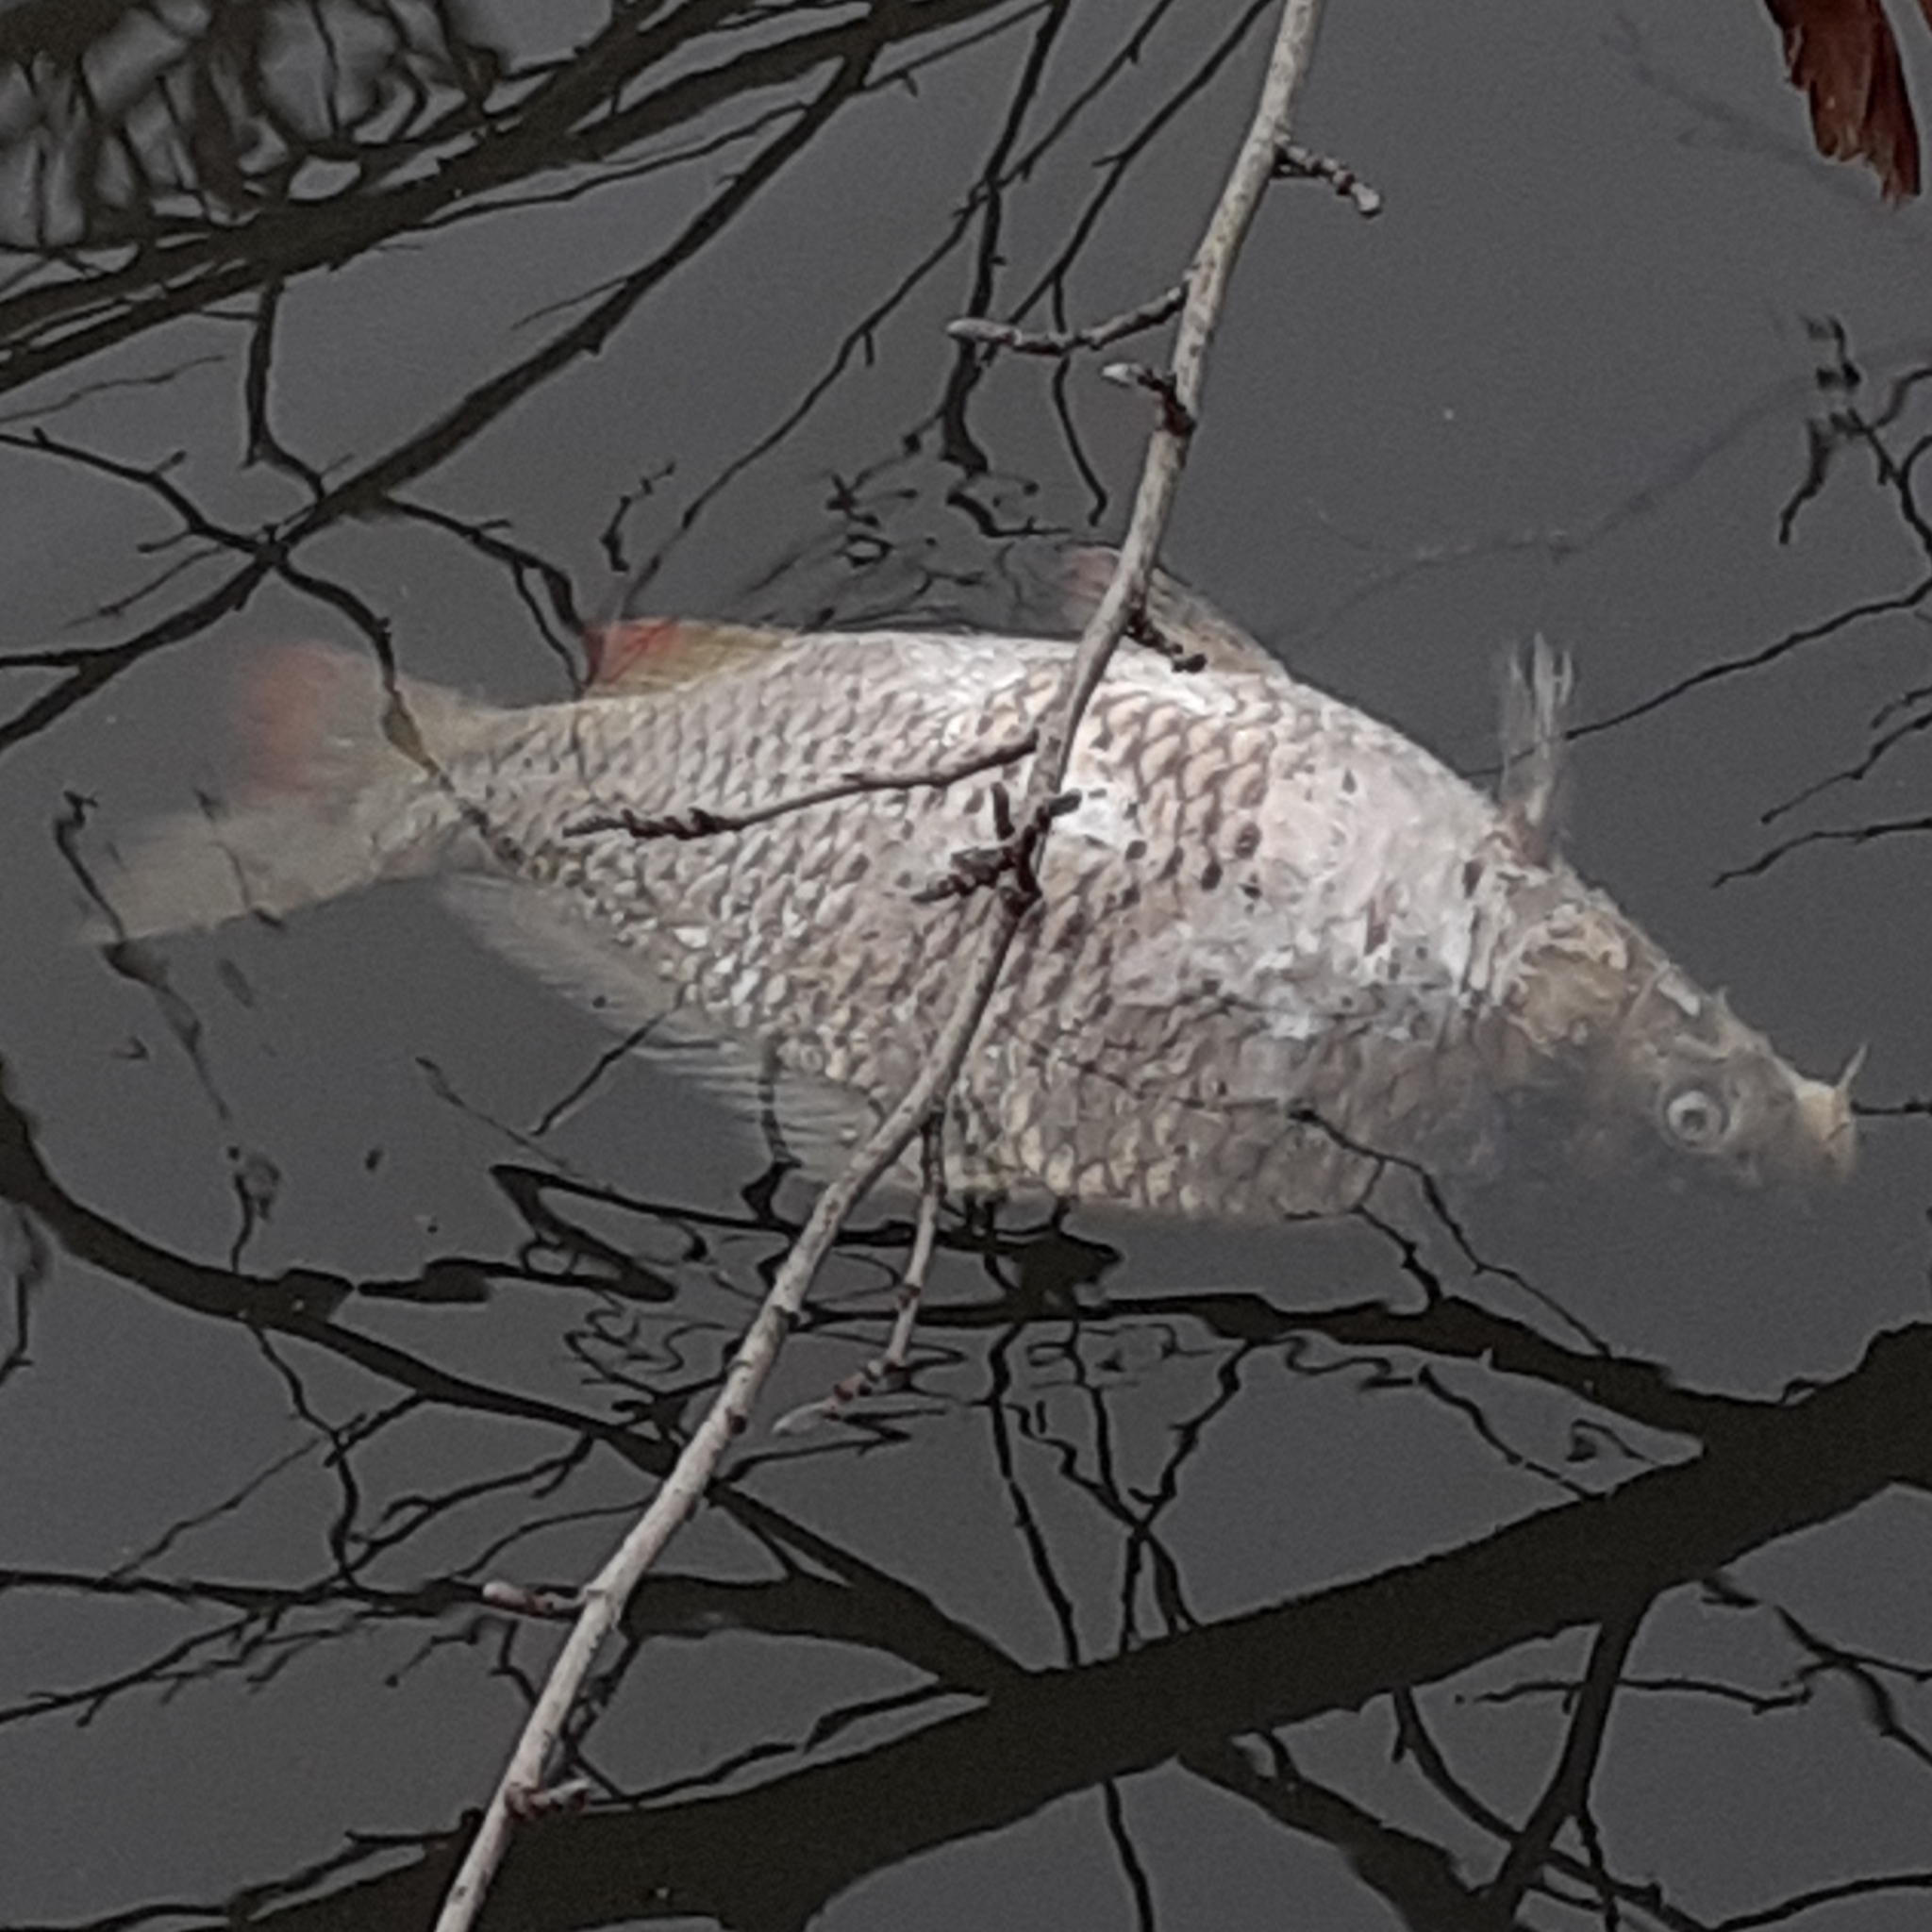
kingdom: Animalia
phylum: Chordata
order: Cypriniformes
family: Cyprinidae
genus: Cyprinus
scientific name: Cyprinus carpio
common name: Common carp
